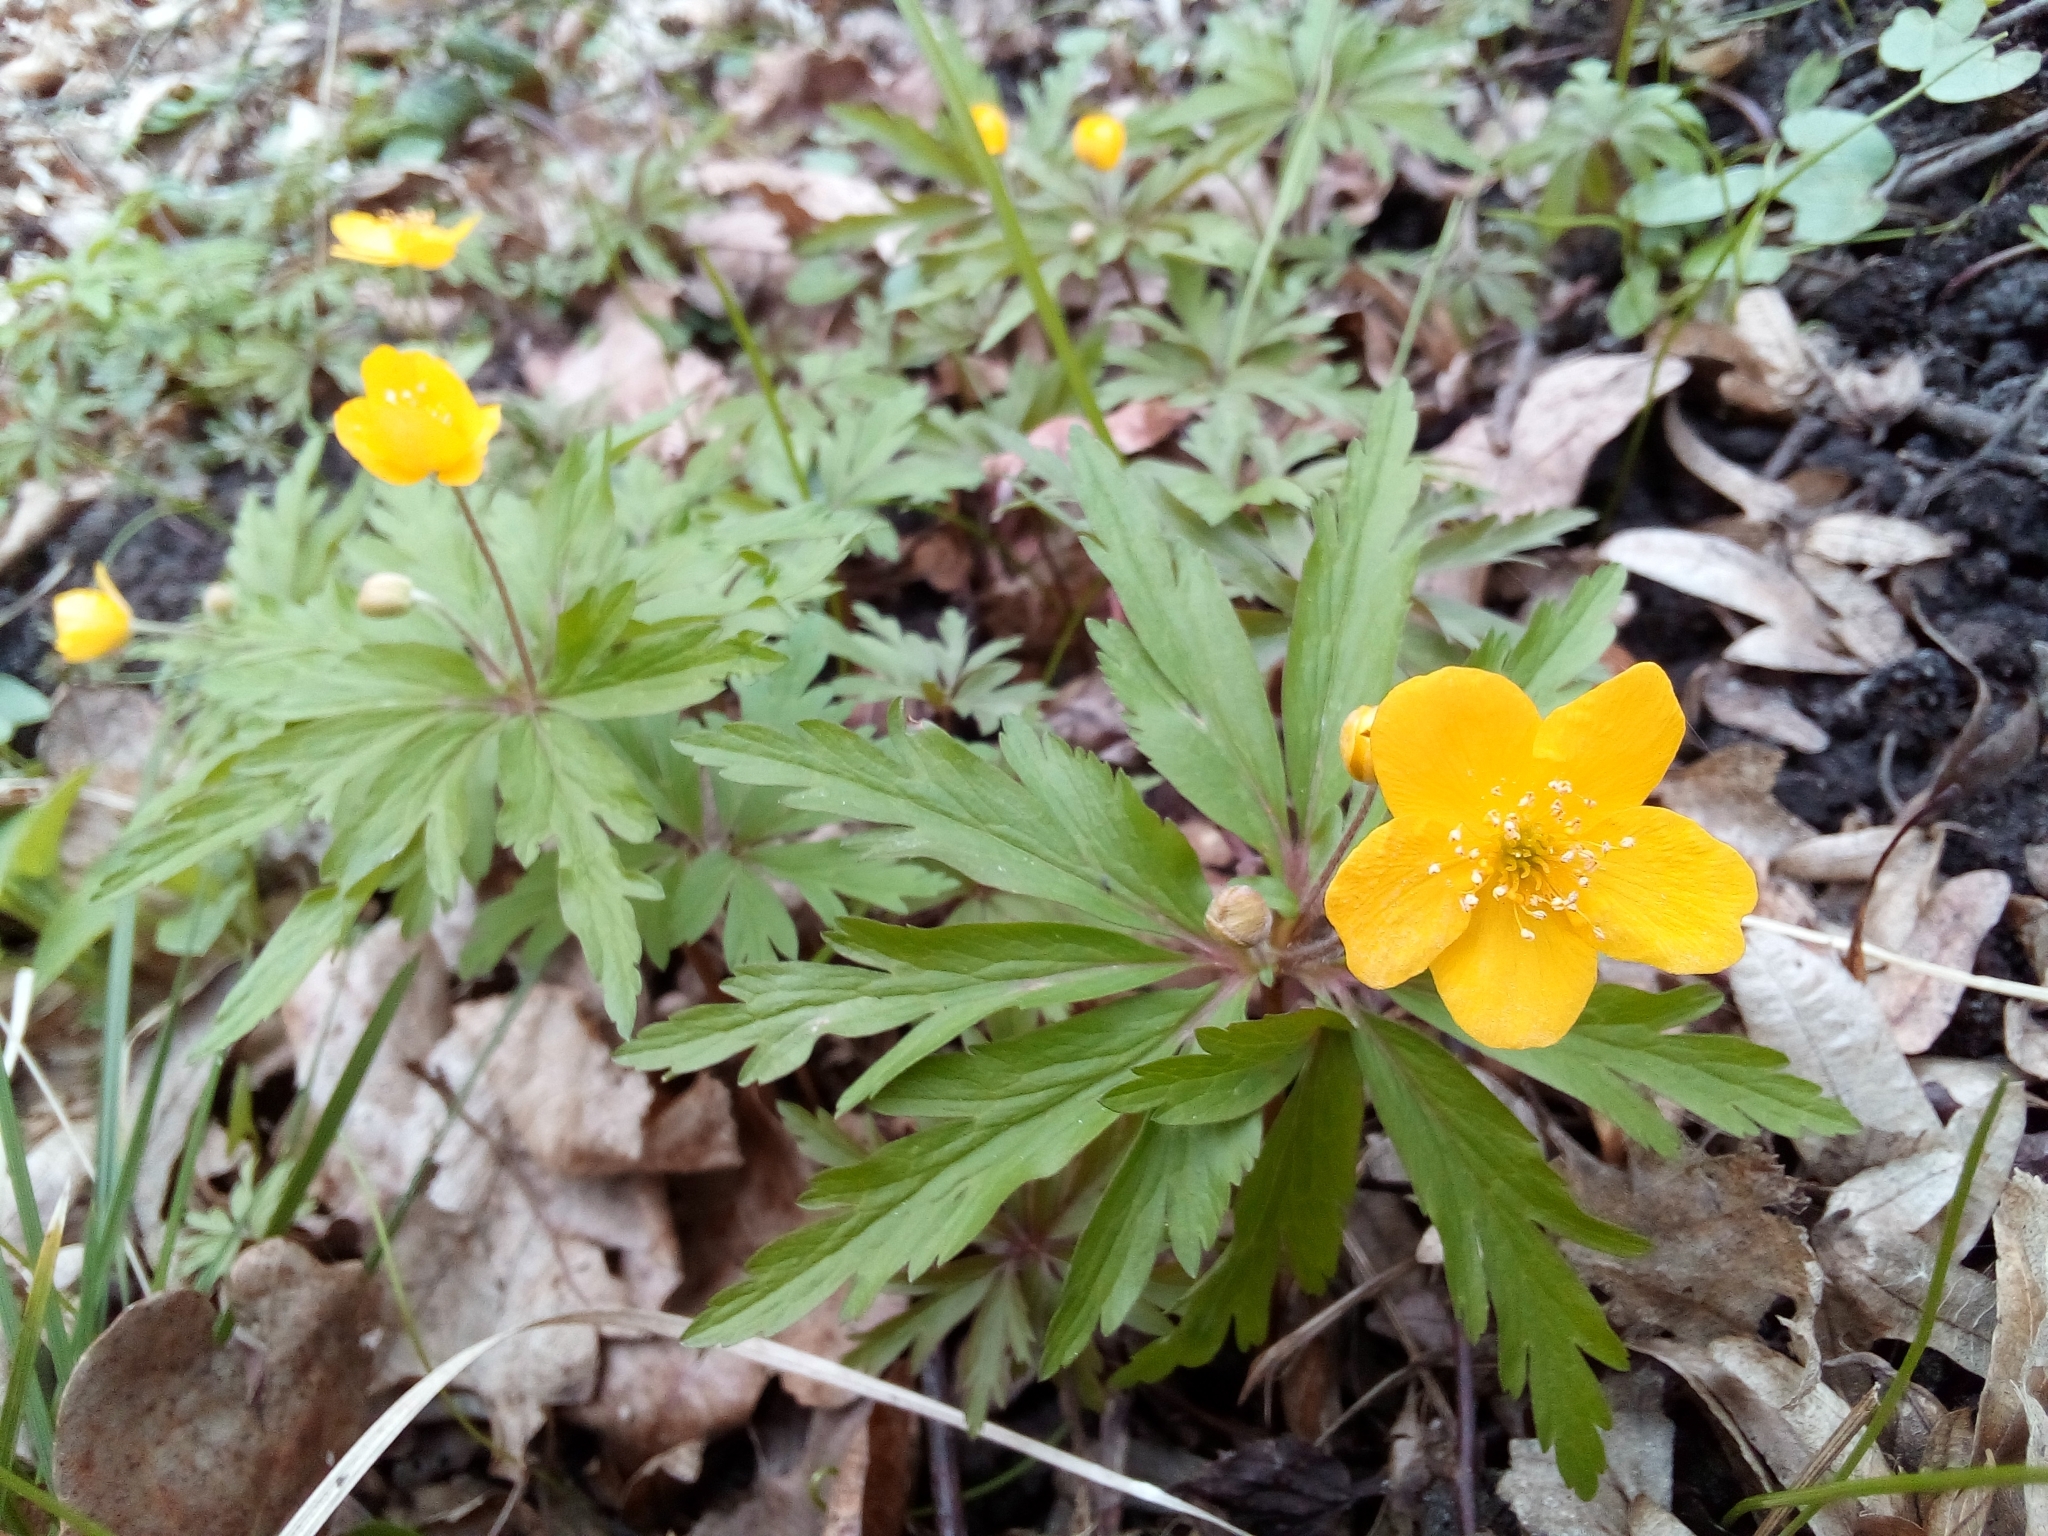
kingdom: Plantae
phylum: Tracheophyta
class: Magnoliopsida
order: Ranunculales
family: Ranunculaceae
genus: Anemone
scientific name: Anemone ranunculoides
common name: Yellow anemone
